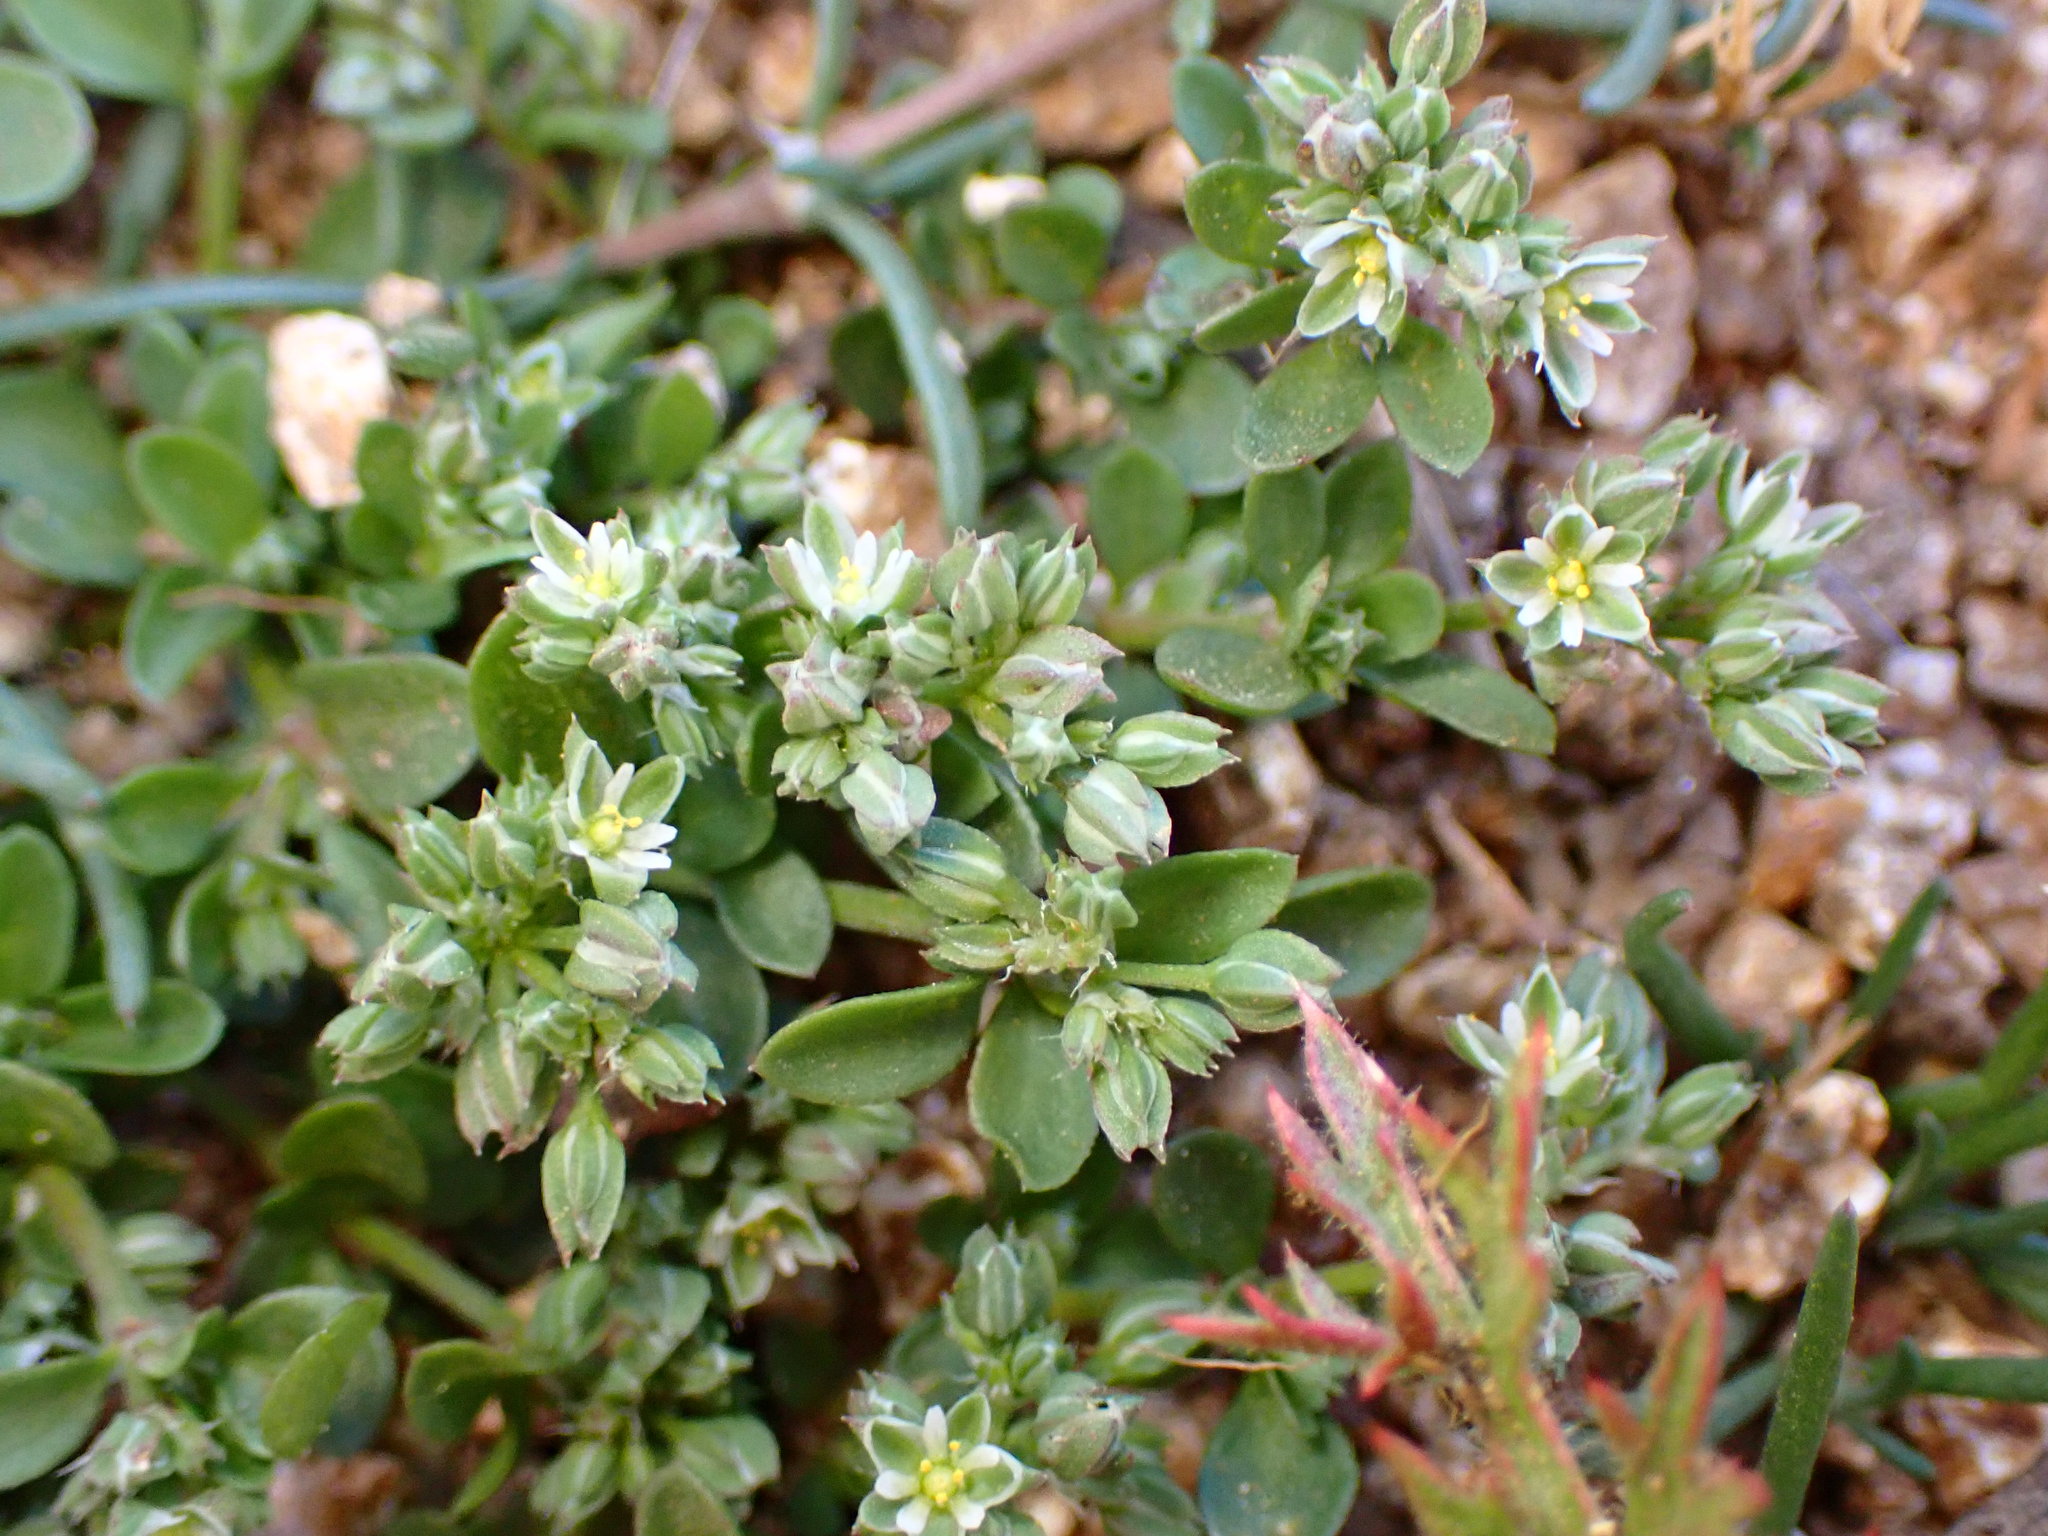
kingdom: Plantae
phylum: Tracheophyta
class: Magnoliopsida
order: Caryophyllales
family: Caryophyllaceae
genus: Polycarpon
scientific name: Polycarpon tetraphyllum
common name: Four-leaved all-seed
